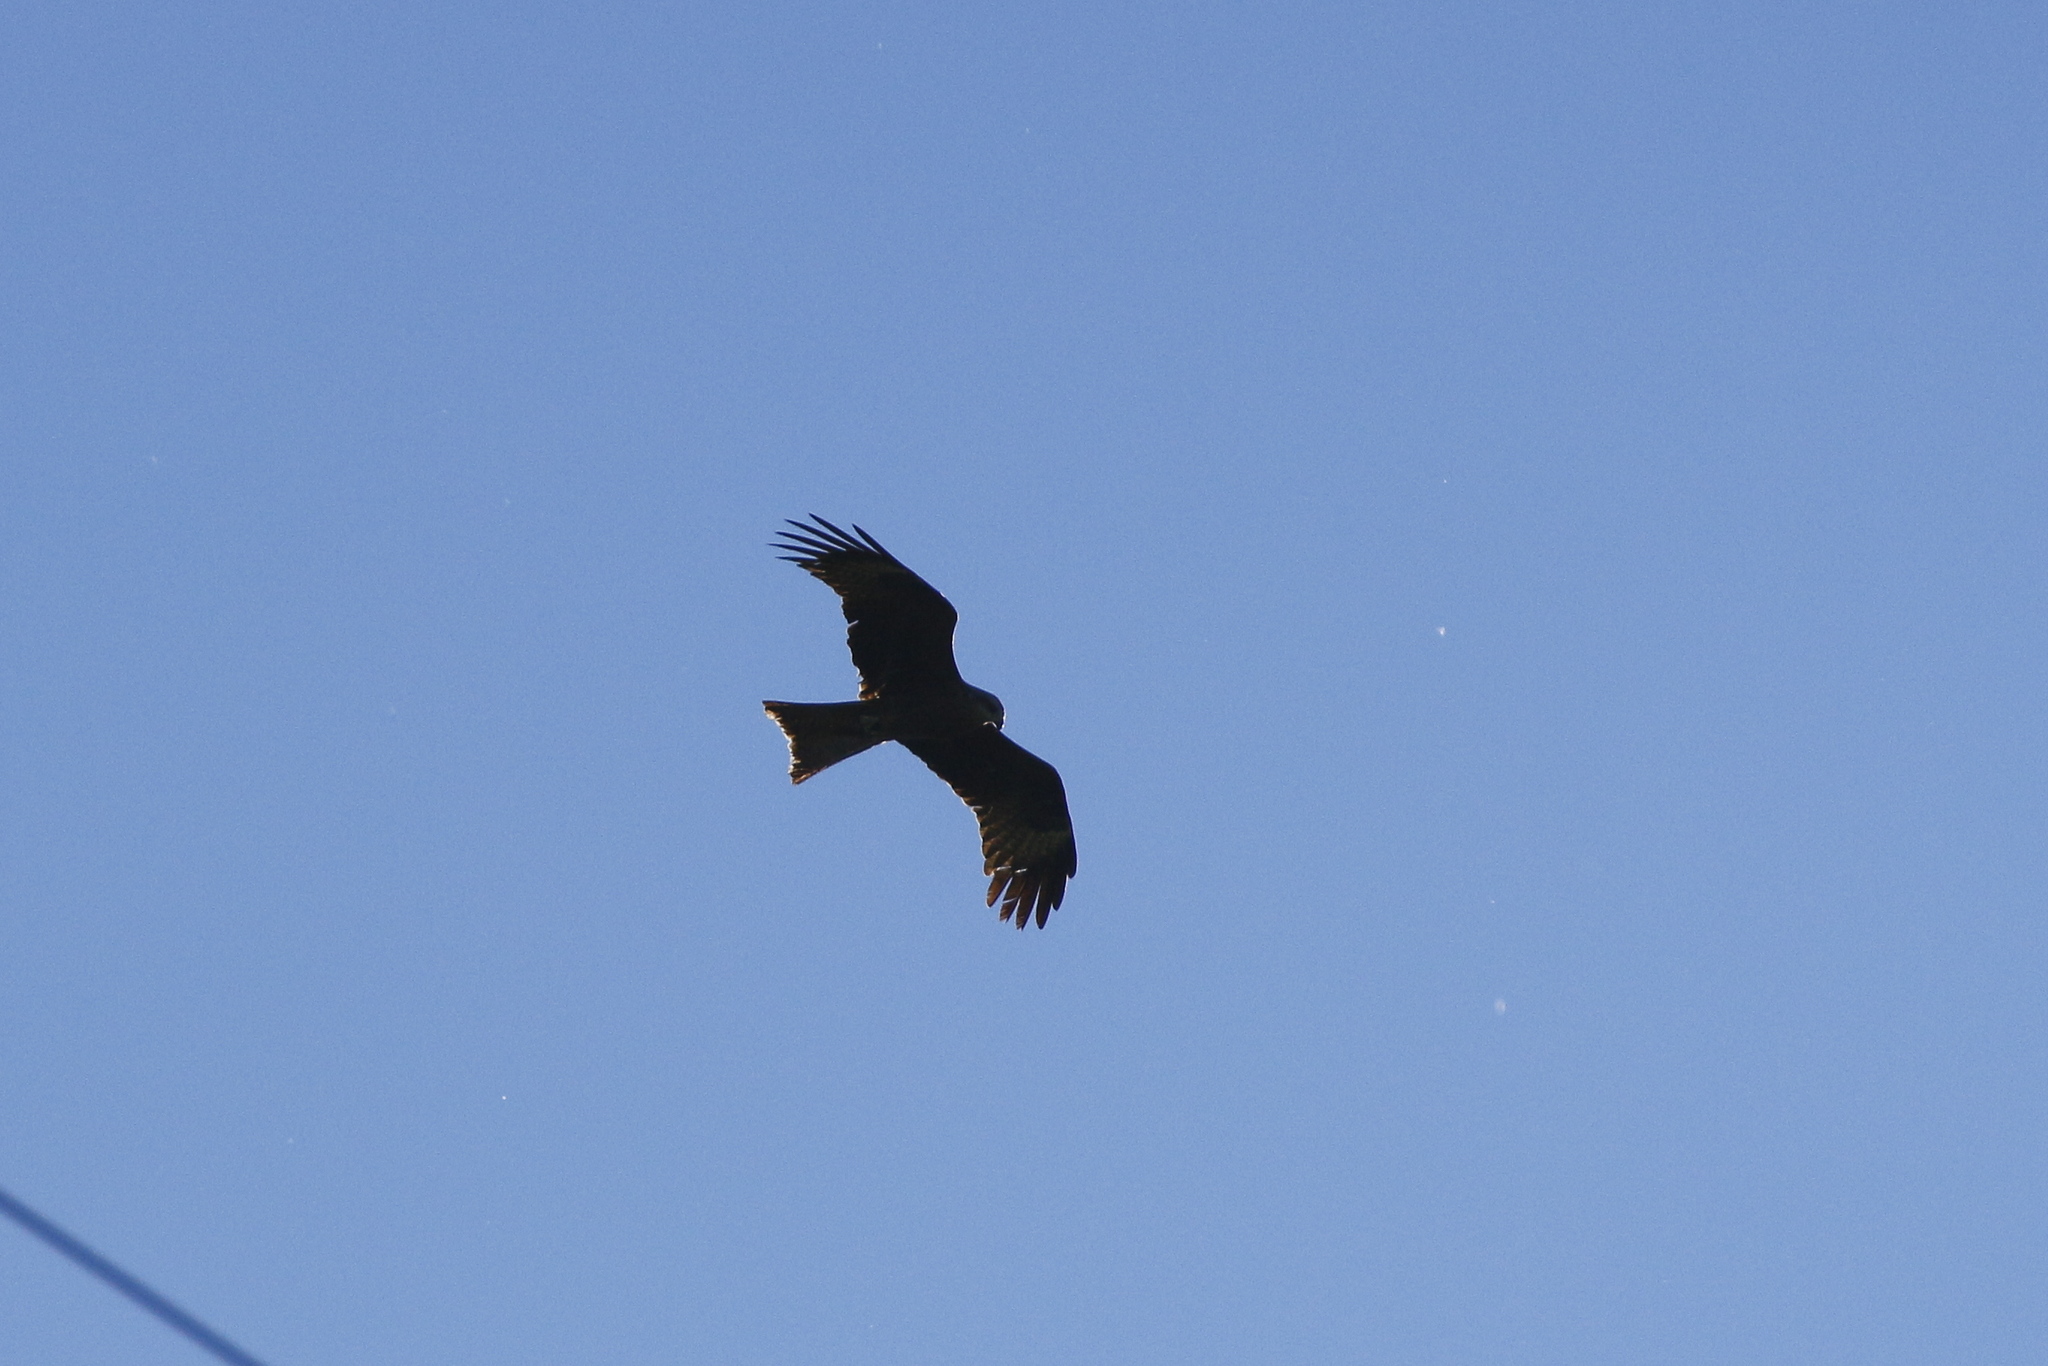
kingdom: Animalia
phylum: Chordata
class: Aves
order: Accipitriformes
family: Accipitridae
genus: Milvus
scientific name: Milvus migrans
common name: Black kite
